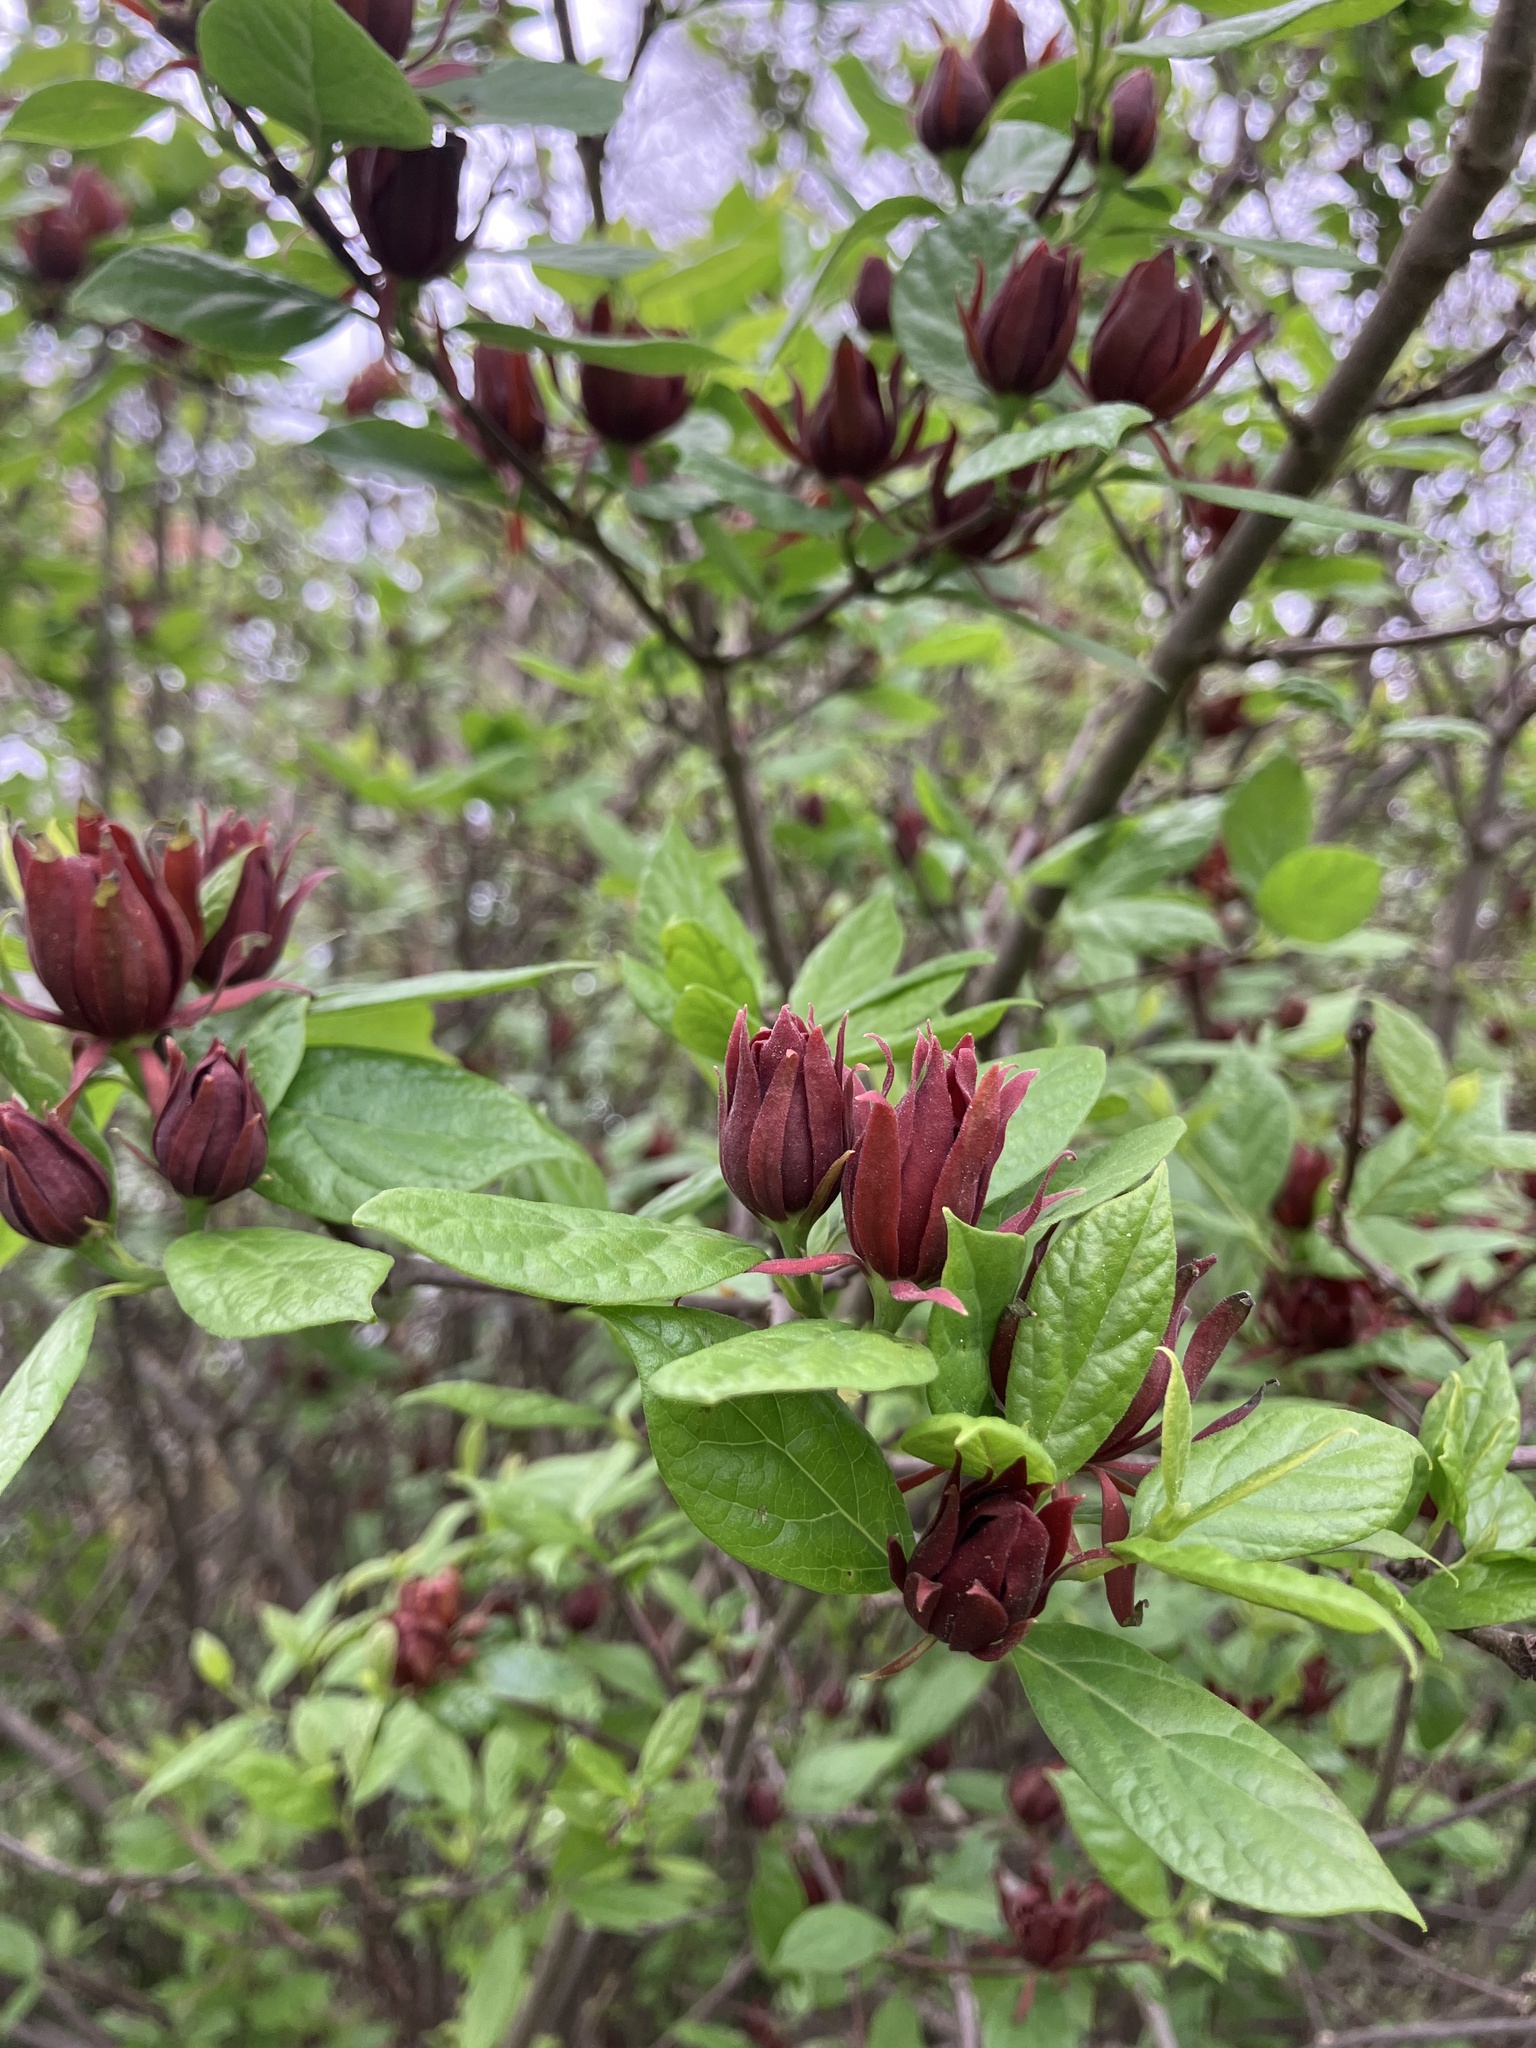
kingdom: Plantae
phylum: Tracheophyta
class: Magnoliopsida
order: Laurales
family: Calycanthaceae
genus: Calycanthus
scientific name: Calycanthus floridus
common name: Carolina-allspice
